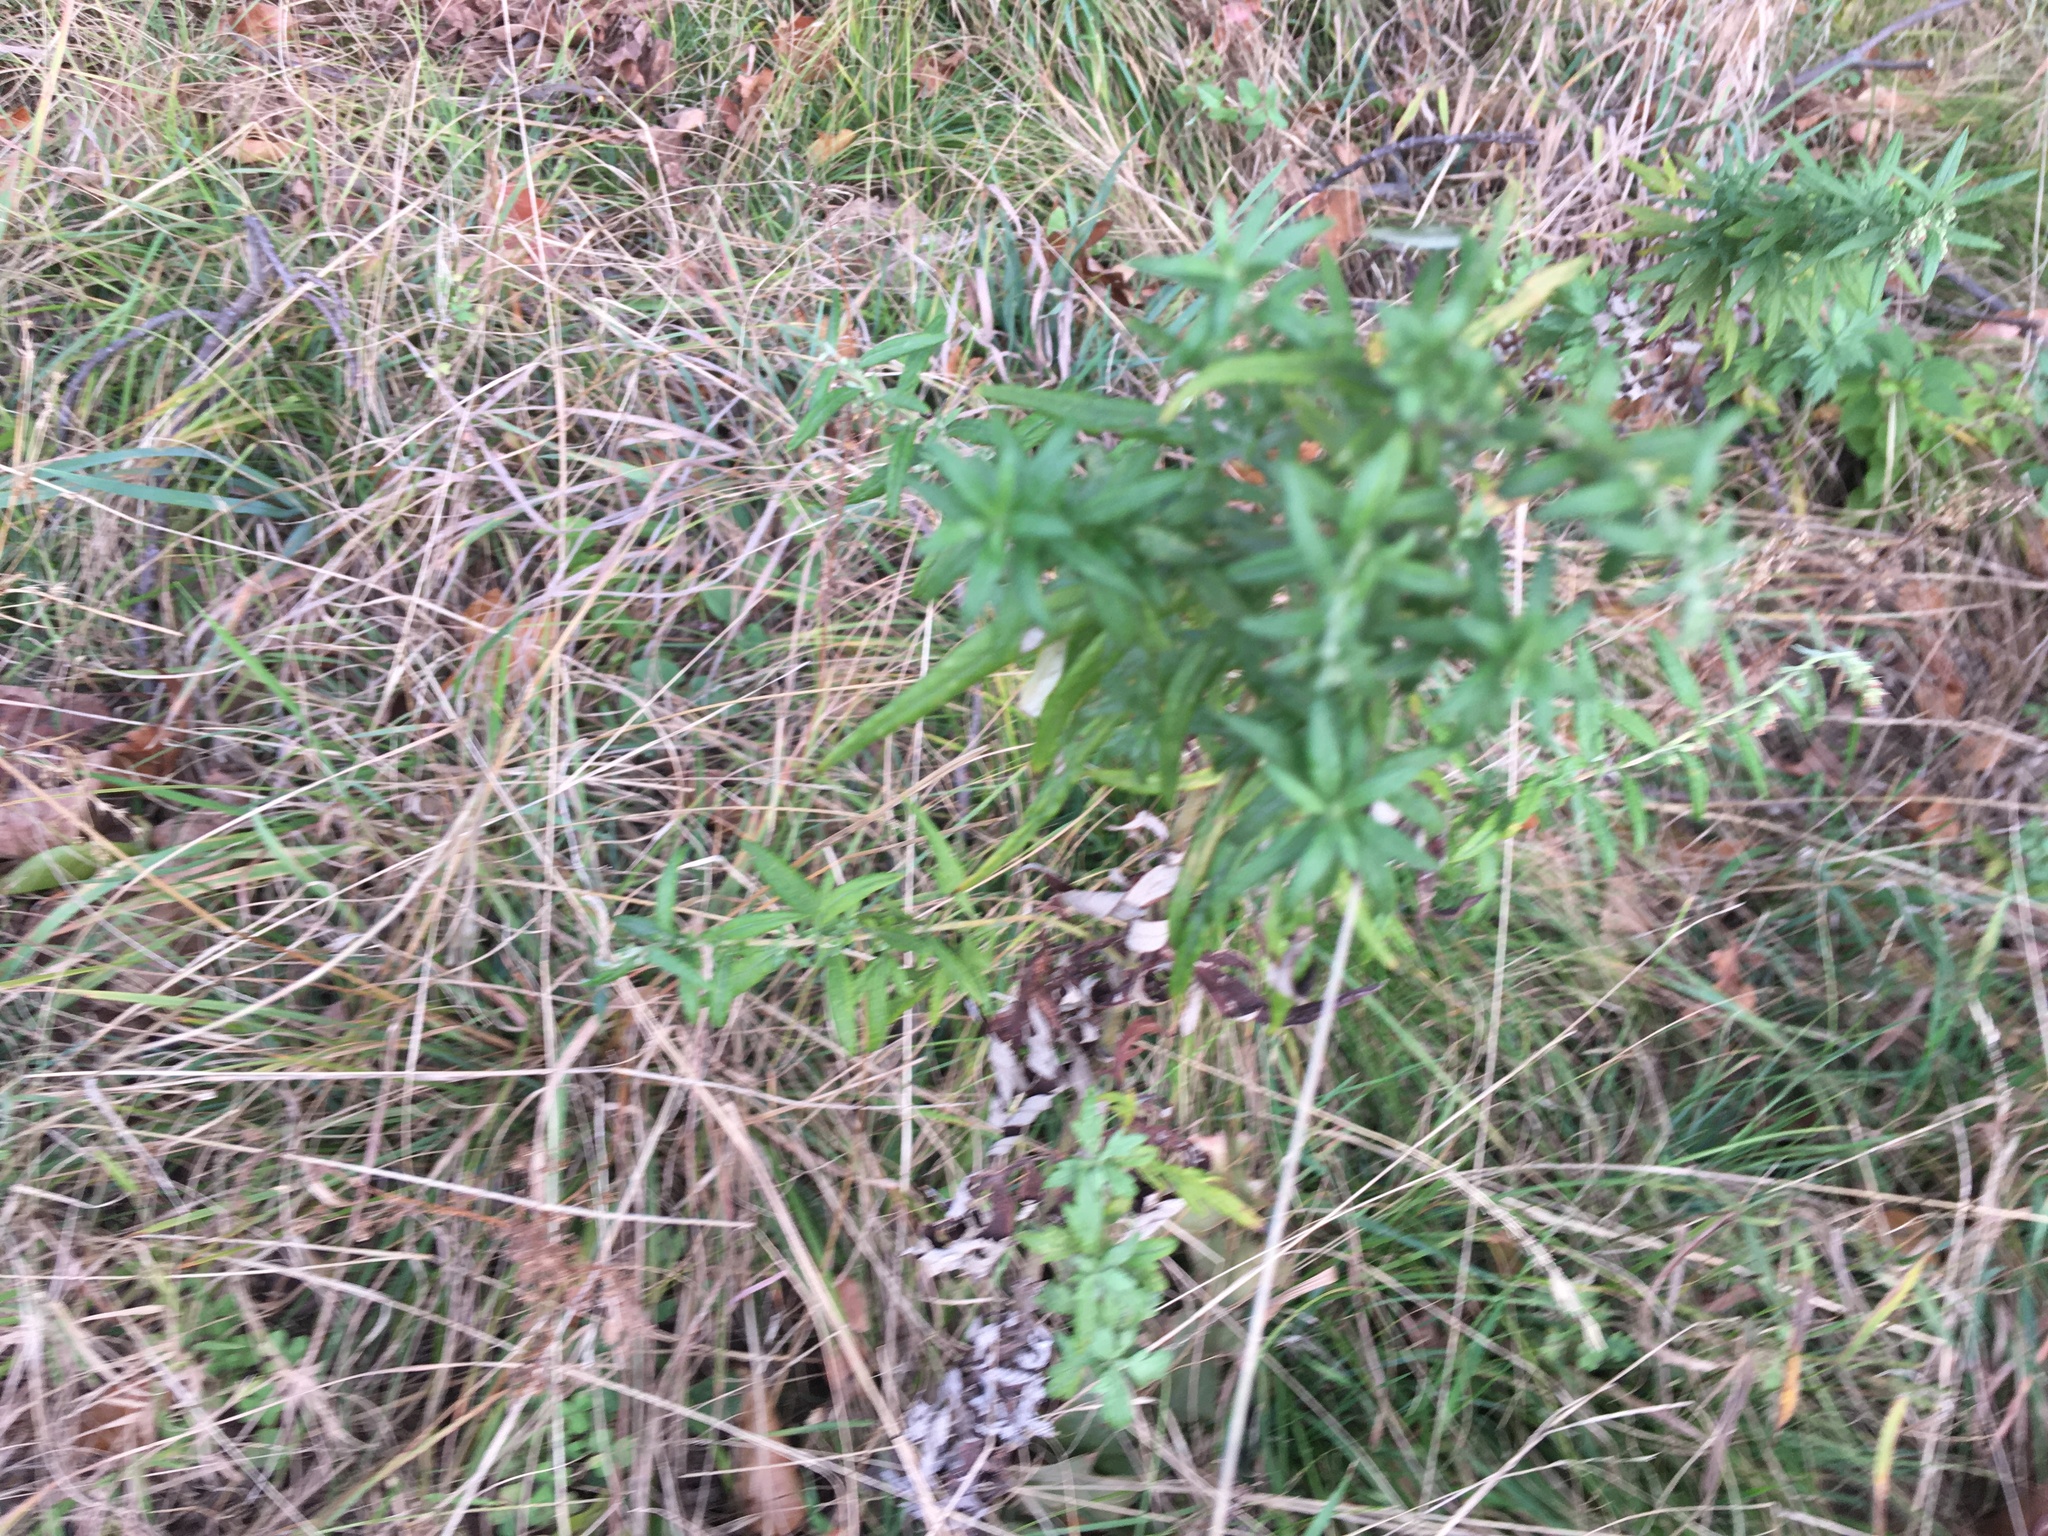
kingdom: Plantae
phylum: Tracheophyta
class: Magnoliopsida
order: Asterales
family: Asteraceae
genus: Artemisia
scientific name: Artemisia vulgaris
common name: Mugwort
